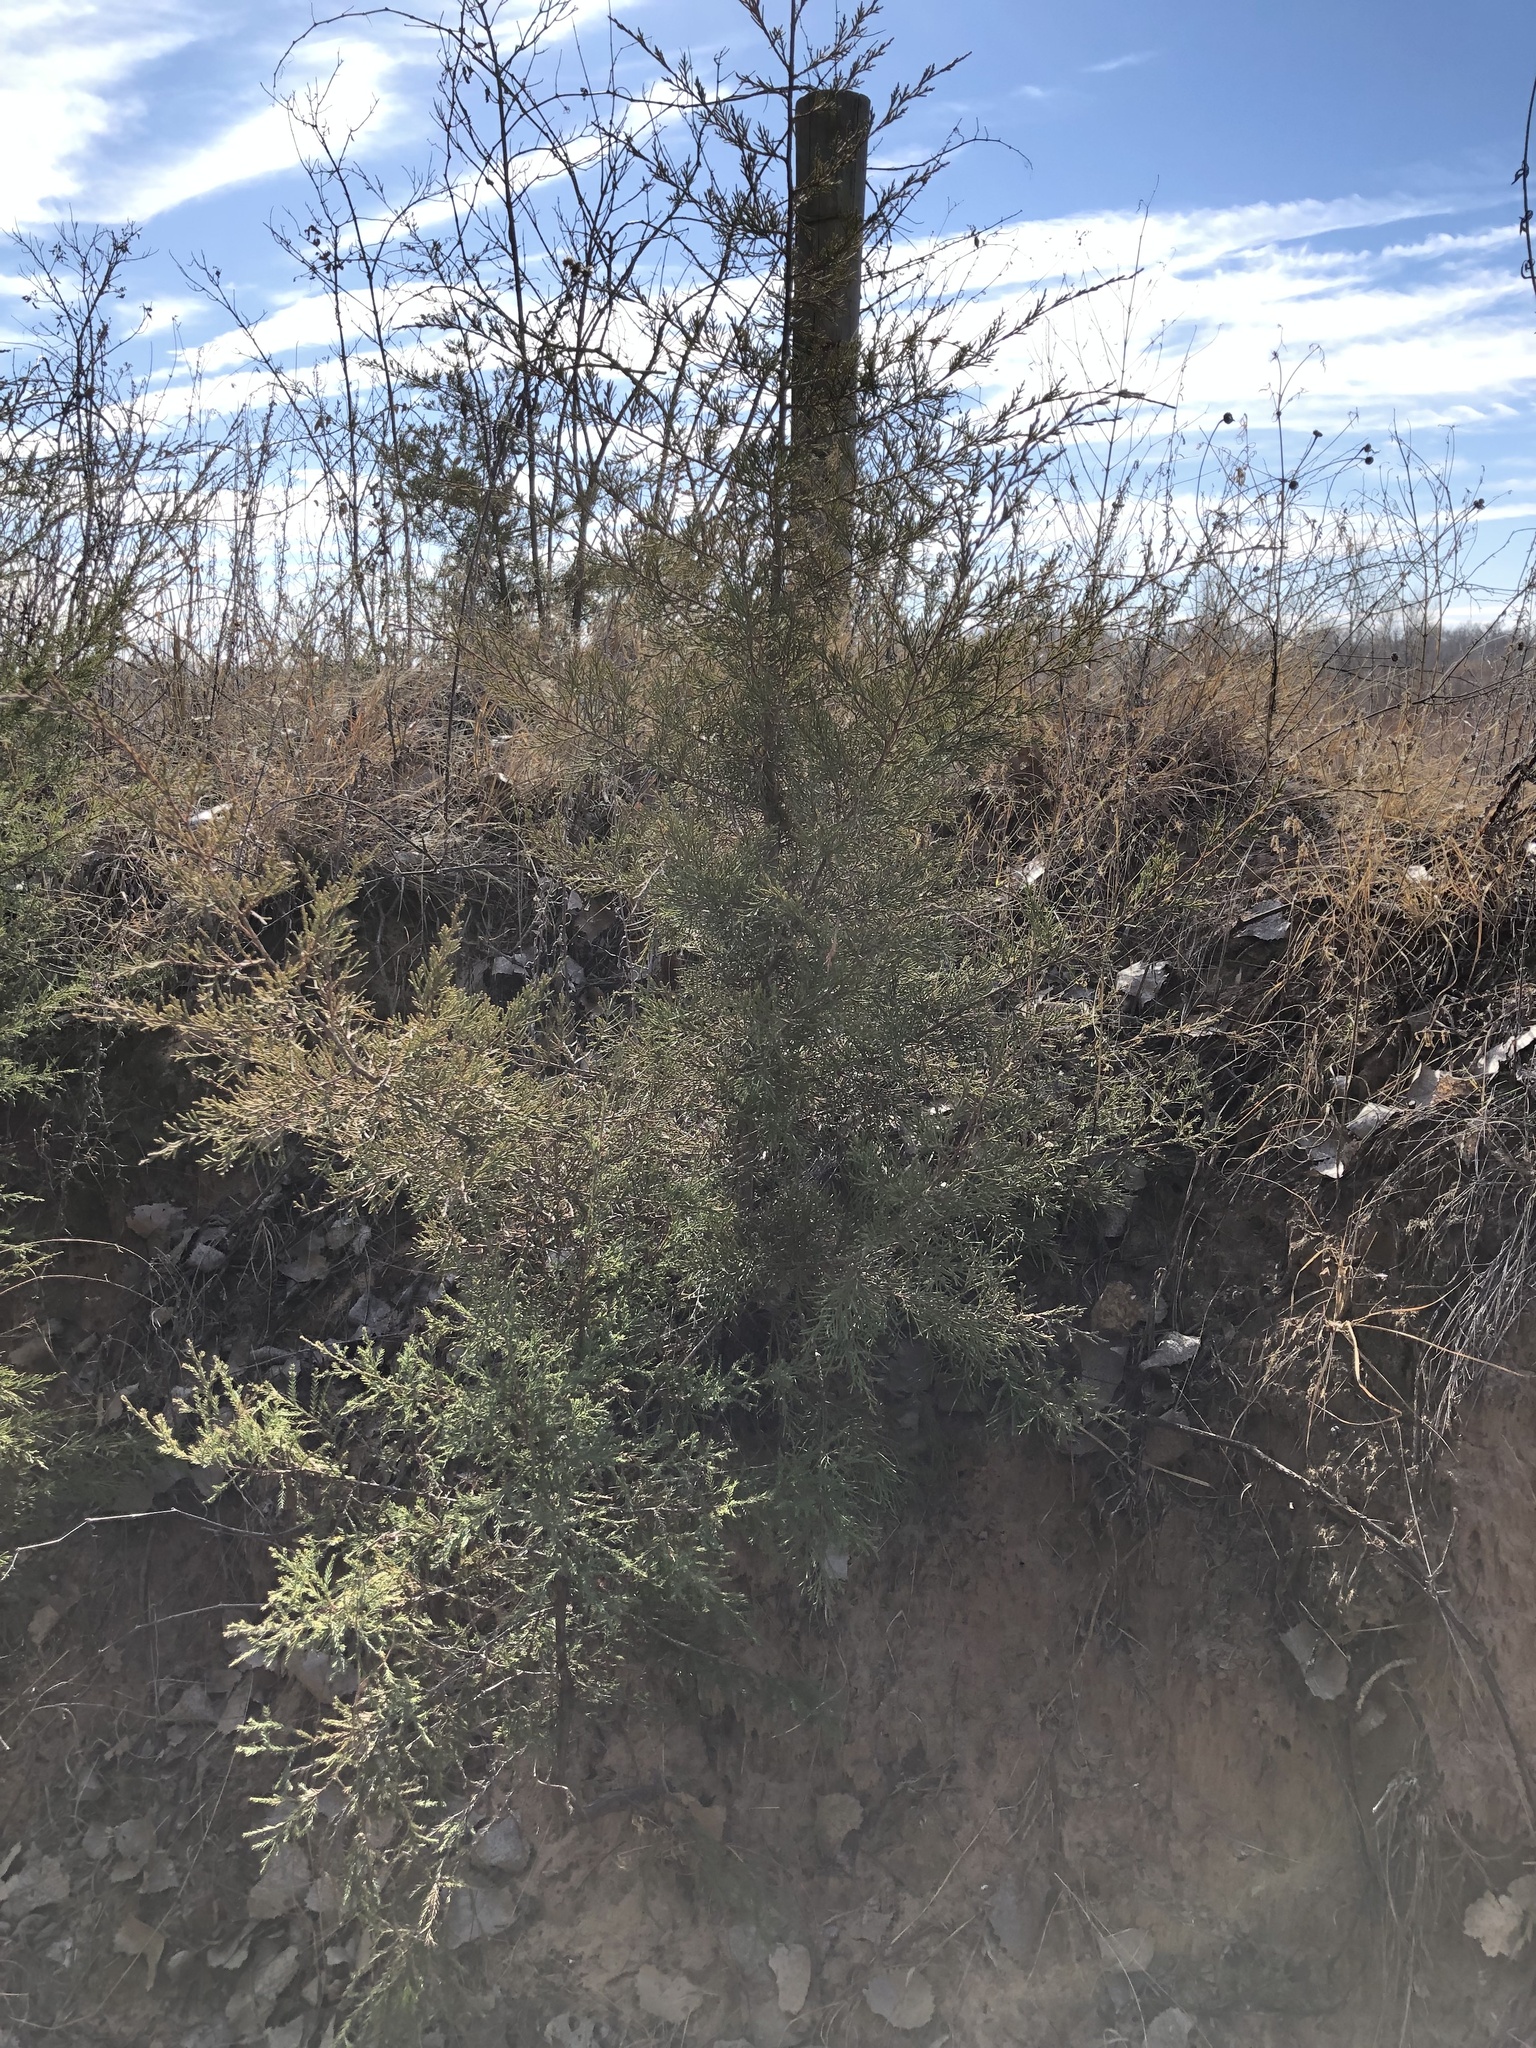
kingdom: Plantae
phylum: Tracheophyta
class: Pinopsida
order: Pinales
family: Cupressaceae
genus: Juniperus
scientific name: Juniperus virginiana
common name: Red juniper
